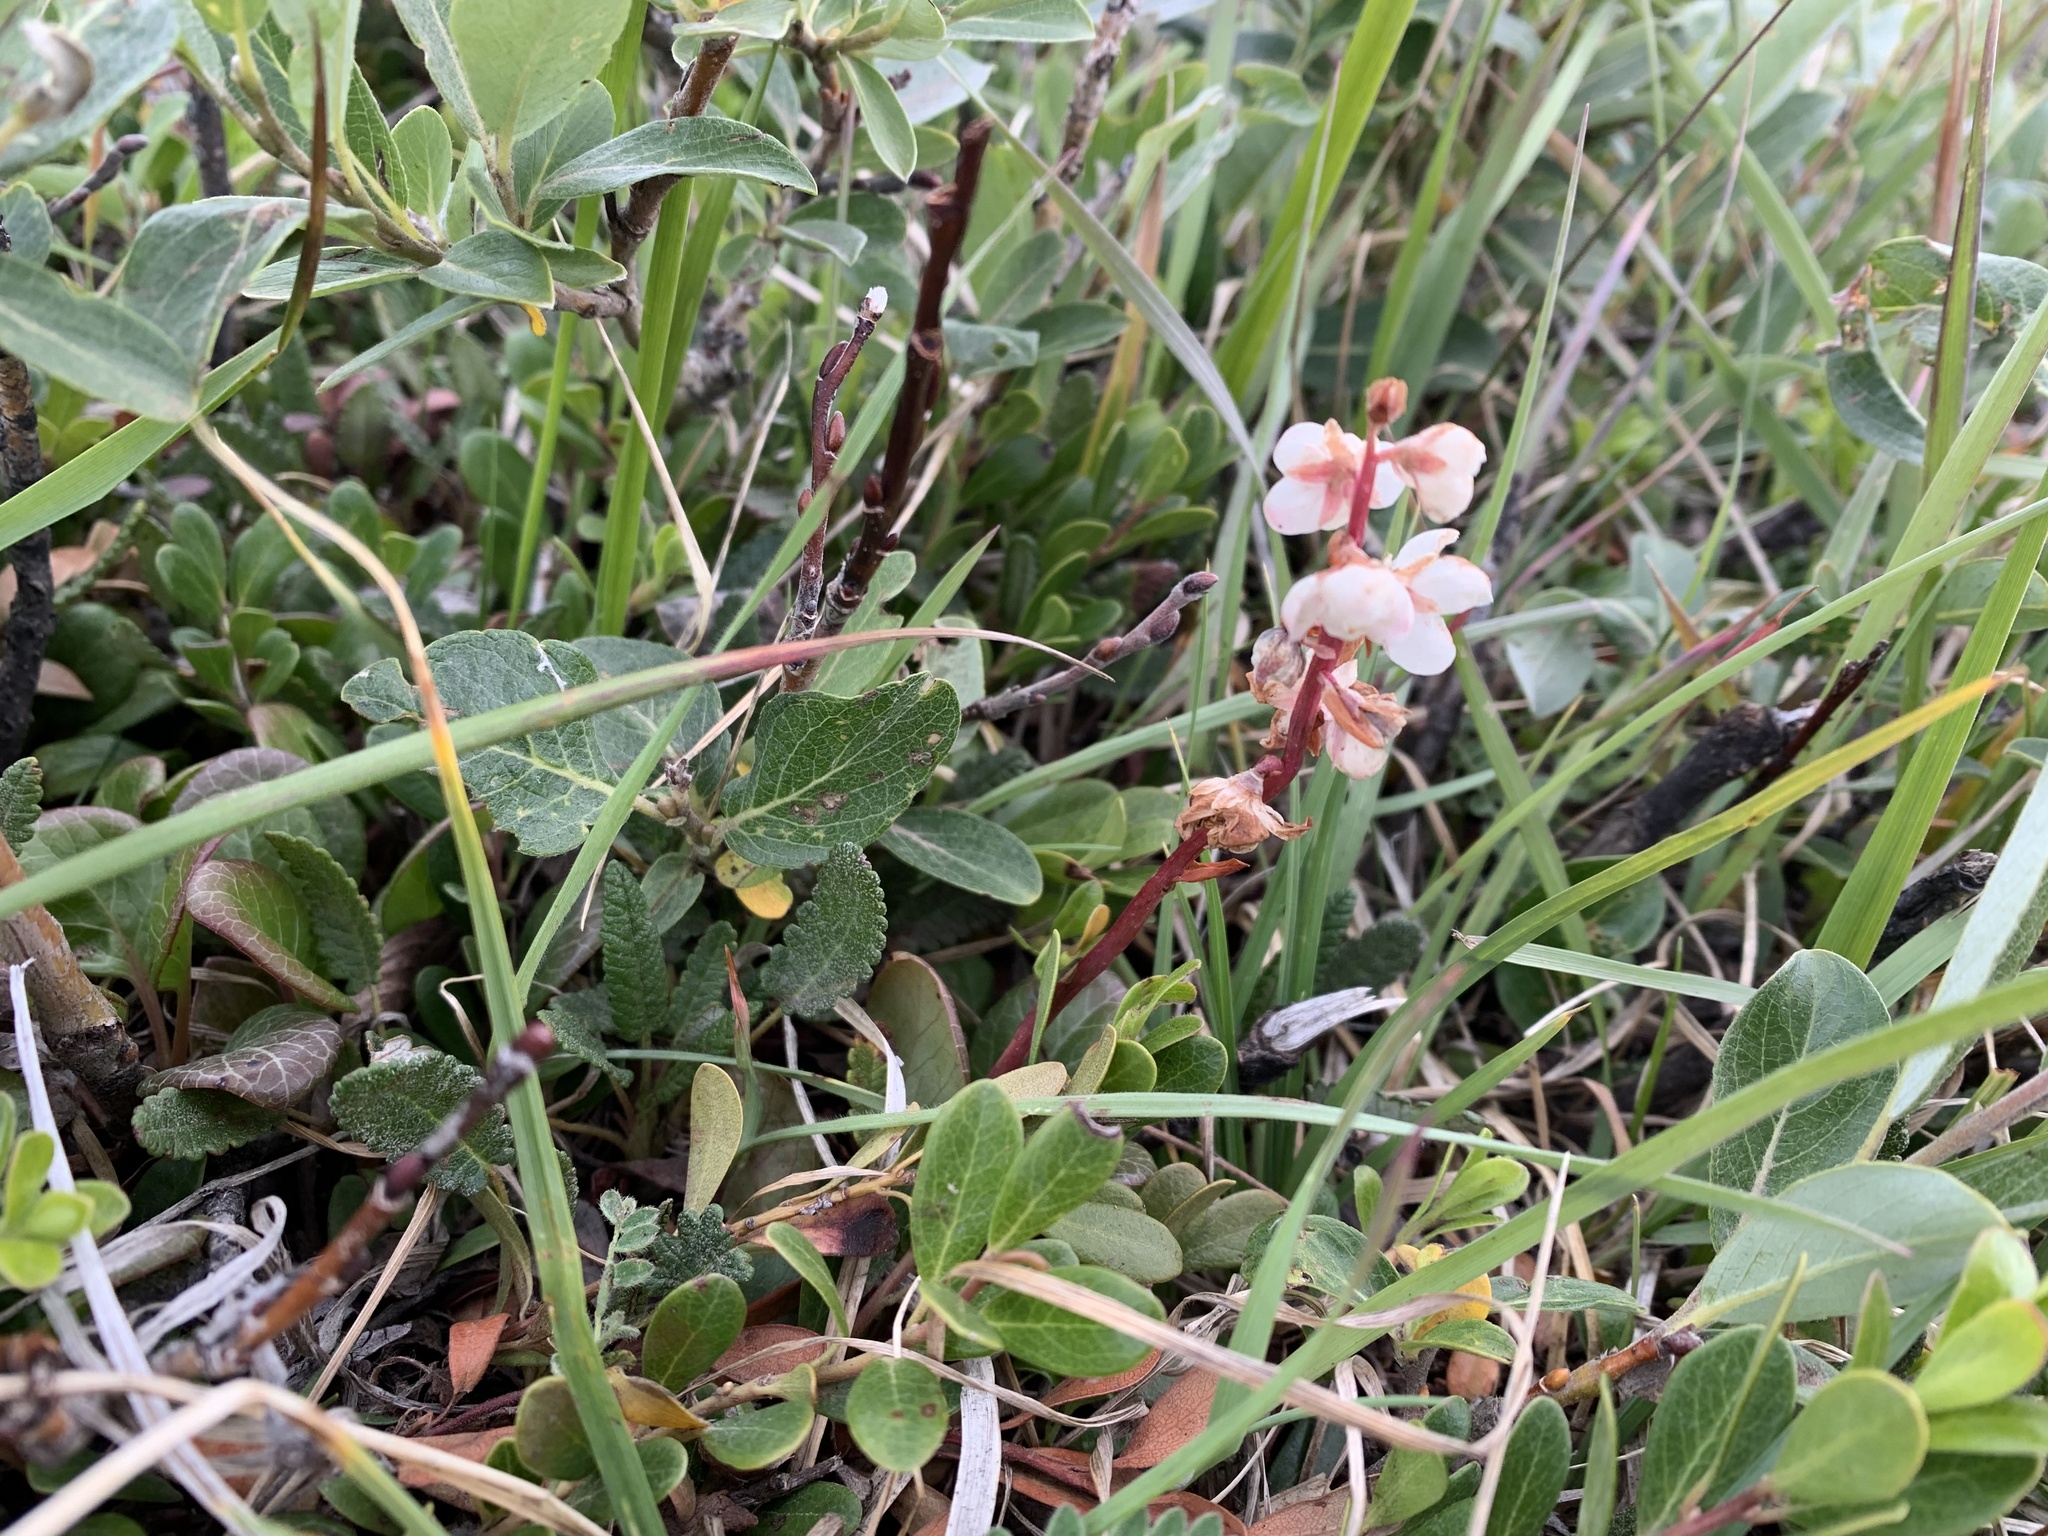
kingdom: Plantae
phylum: Tracheophyta
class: Magnoliopsida
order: Ericales
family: Ericaceae
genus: Pyrola
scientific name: Pyrola grandiflora
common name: Arctic pyrola
